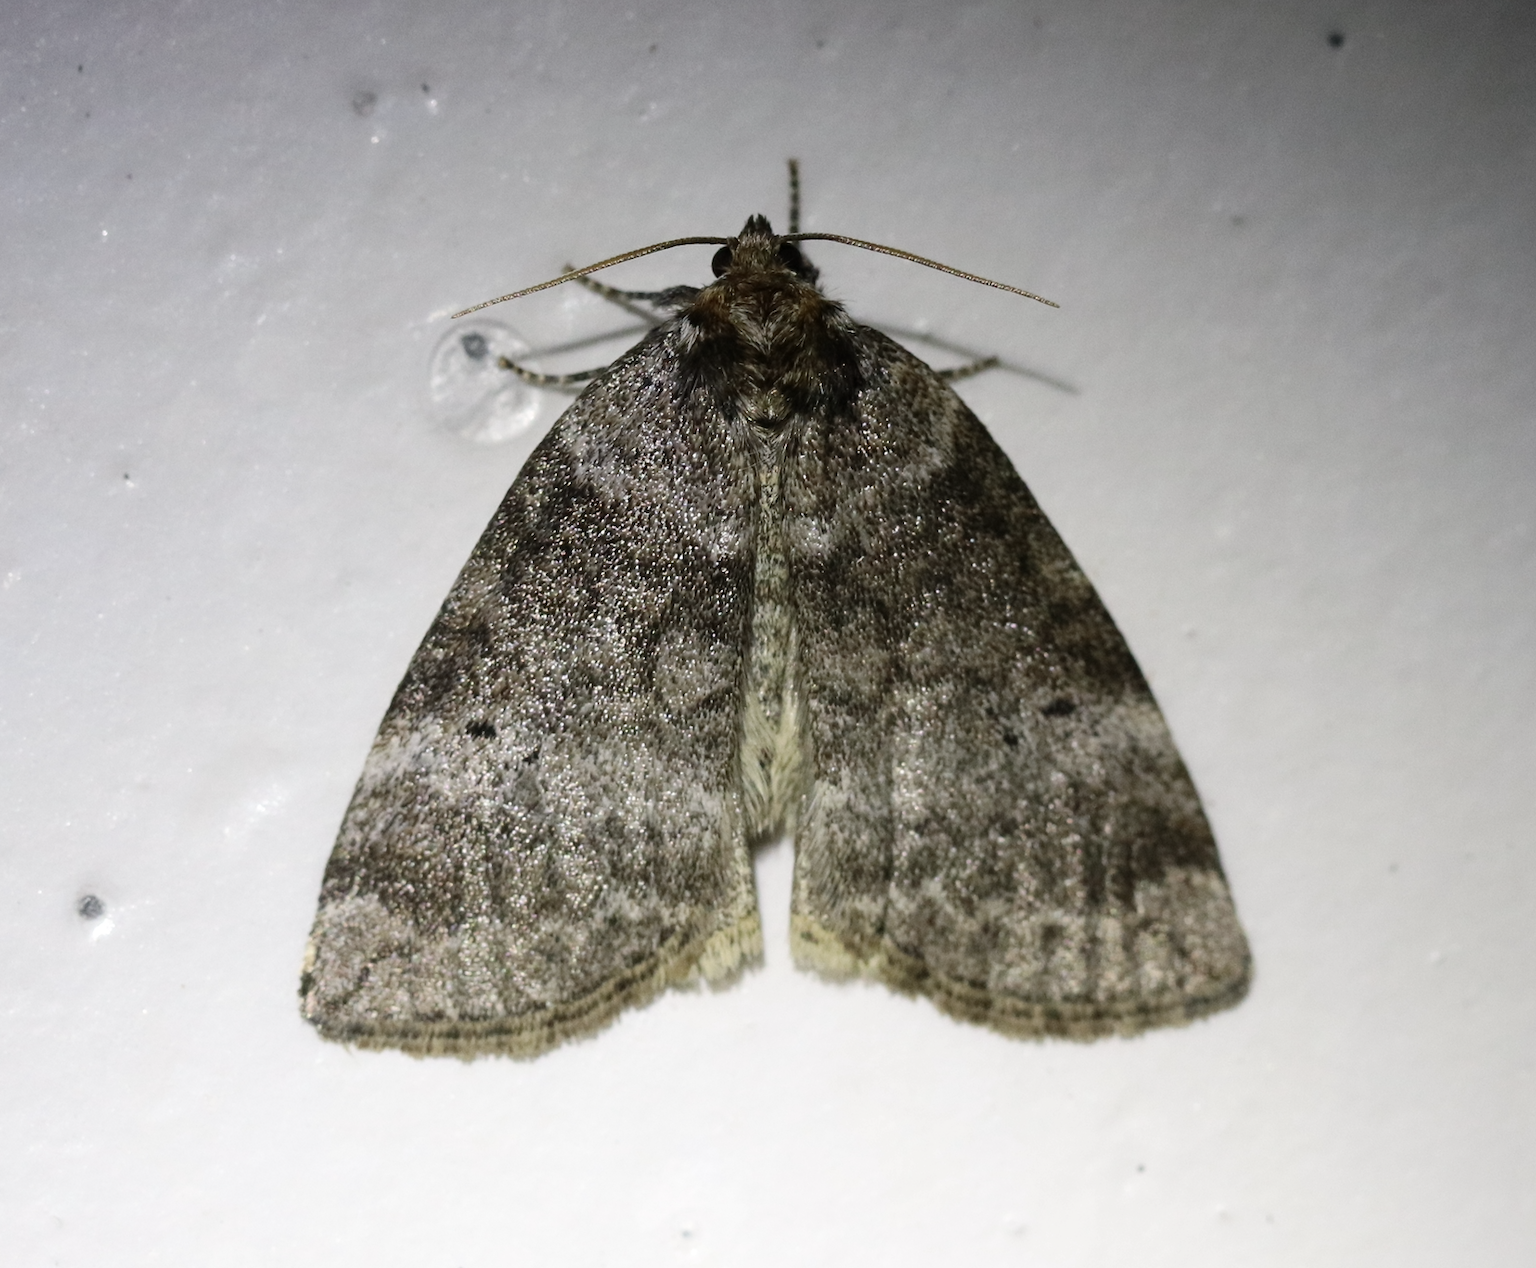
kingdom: Animalia
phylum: Arthropoda
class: Insecta
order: Lepidoptera
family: Drepanidae
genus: Ochropacha
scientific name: Ochropacha duplaris
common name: Common lutestring
